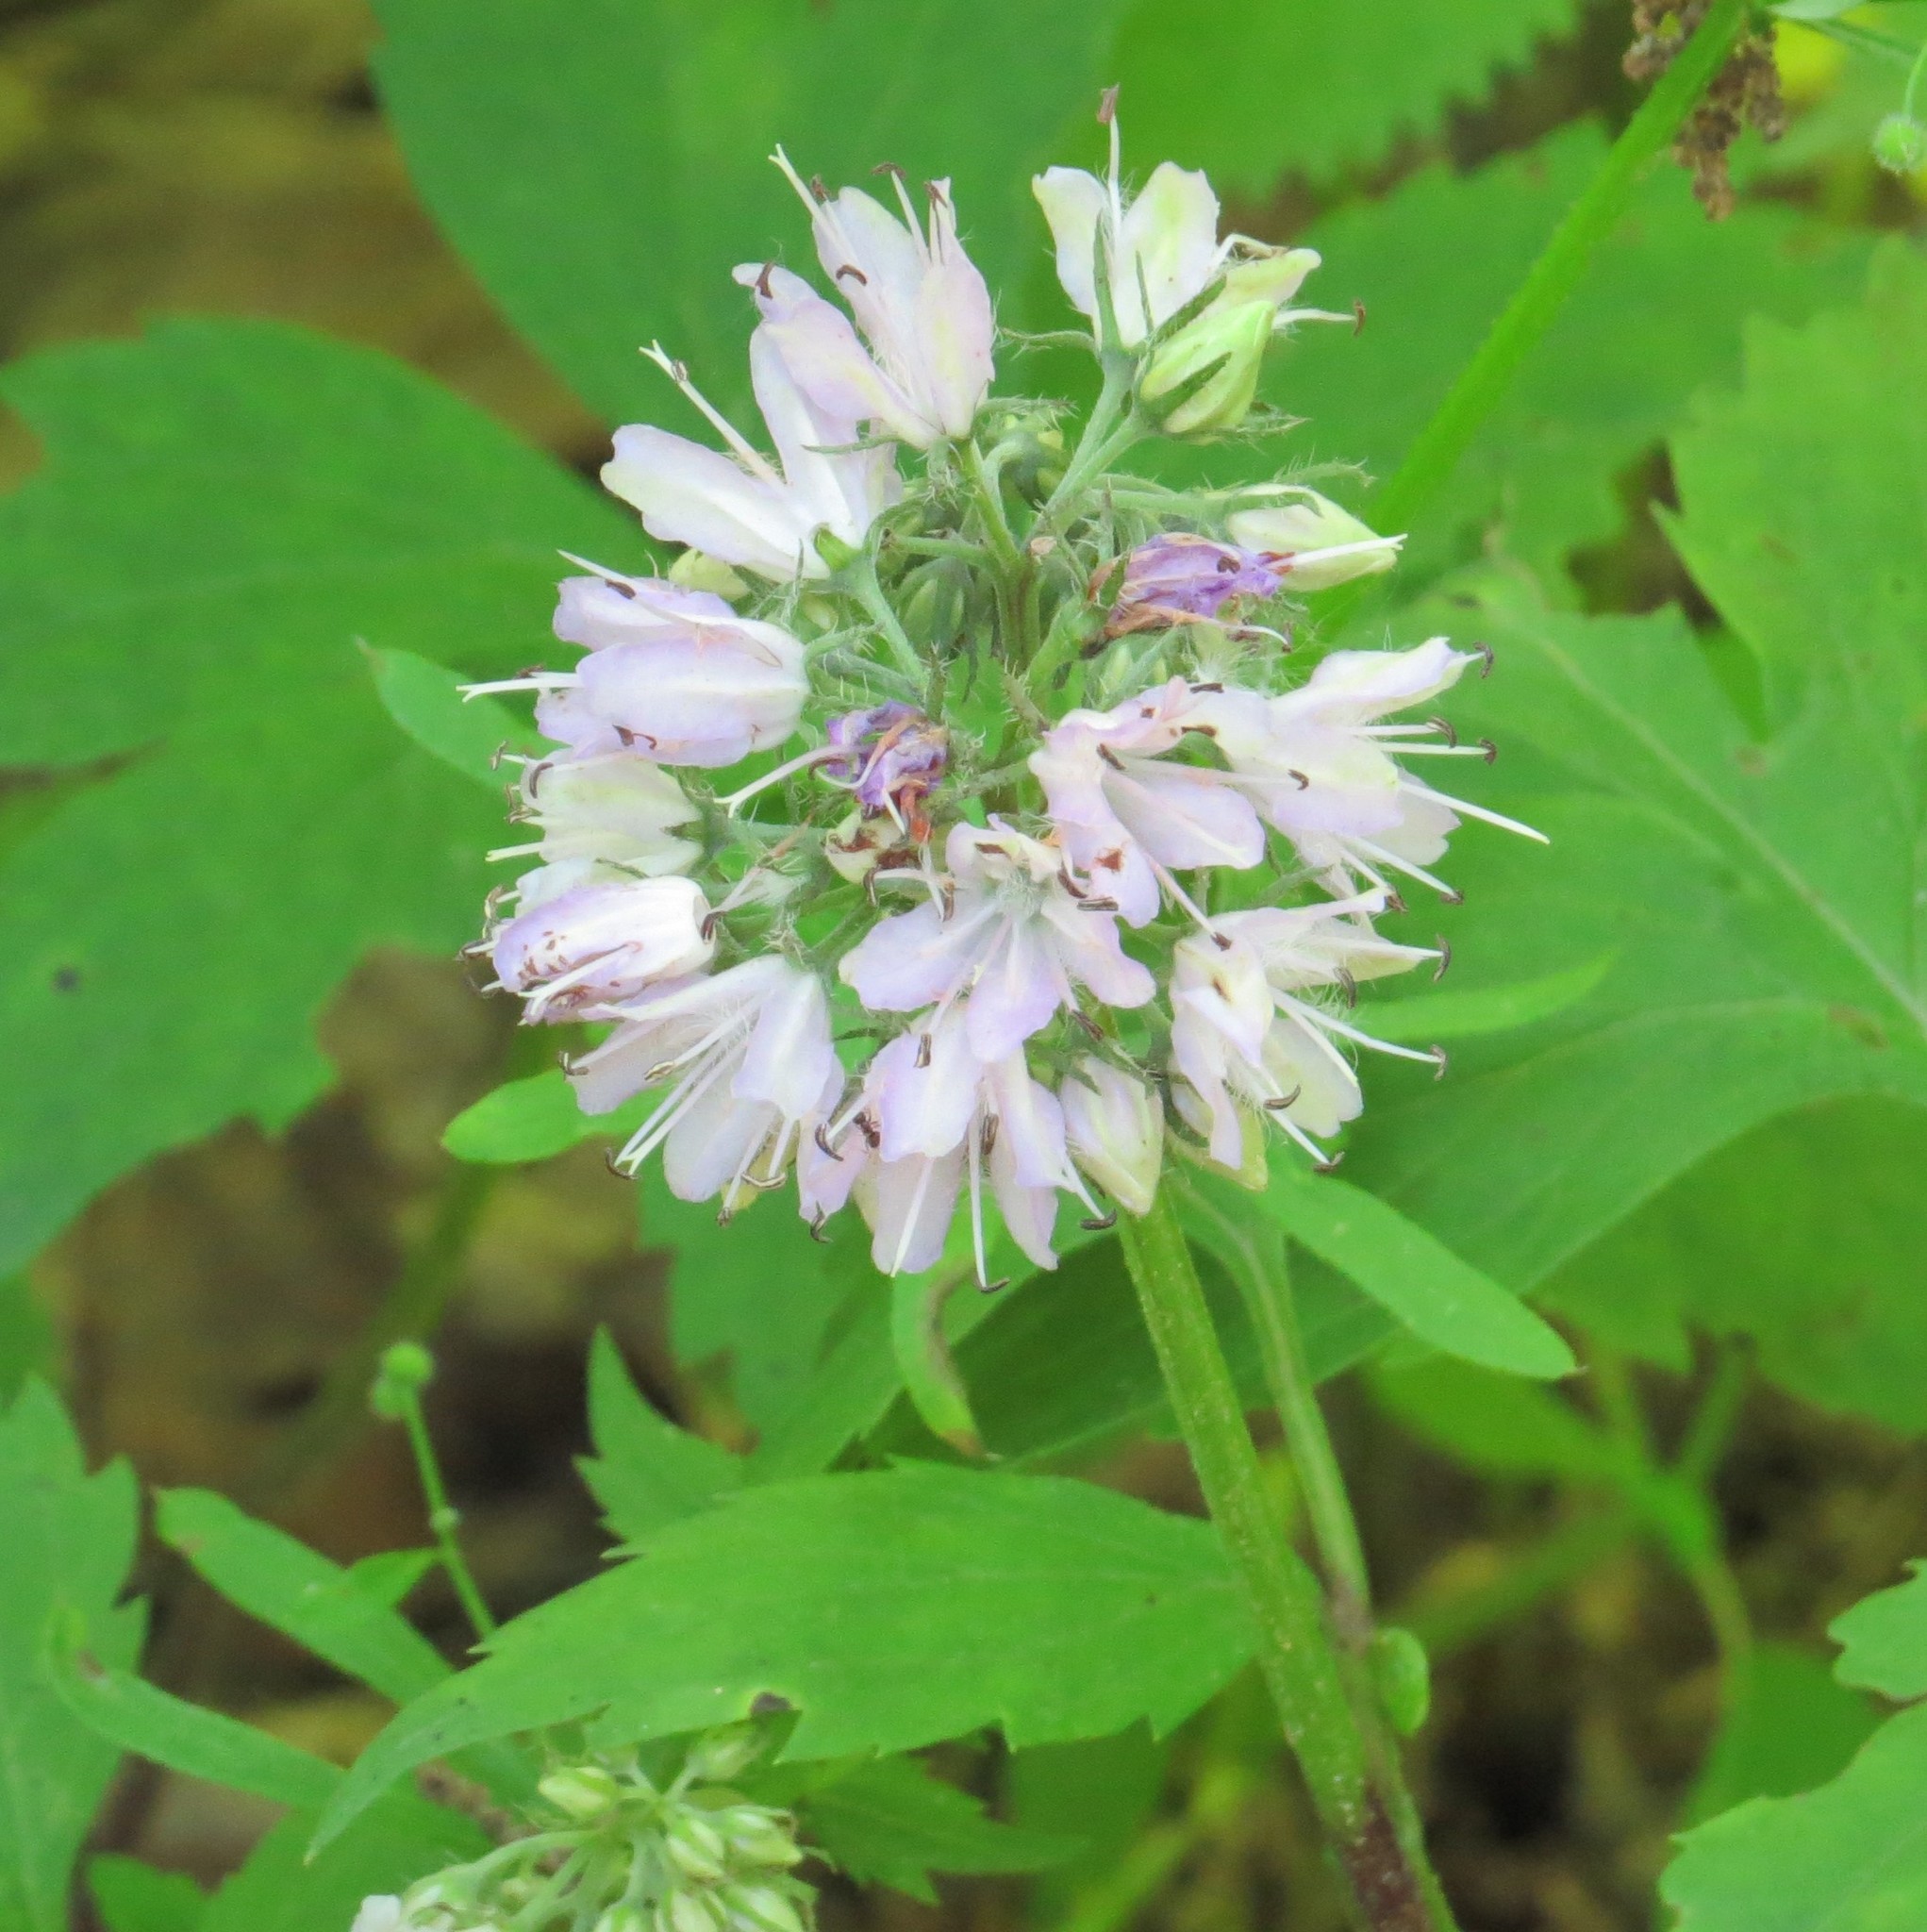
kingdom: Plantae
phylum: Tracheophyta
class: Magnoliopsida
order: Boraginales
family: Hydrophyllaceae
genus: Hydrophyllum
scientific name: Hydrophyllum virginianum
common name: Virginia waterleaf
